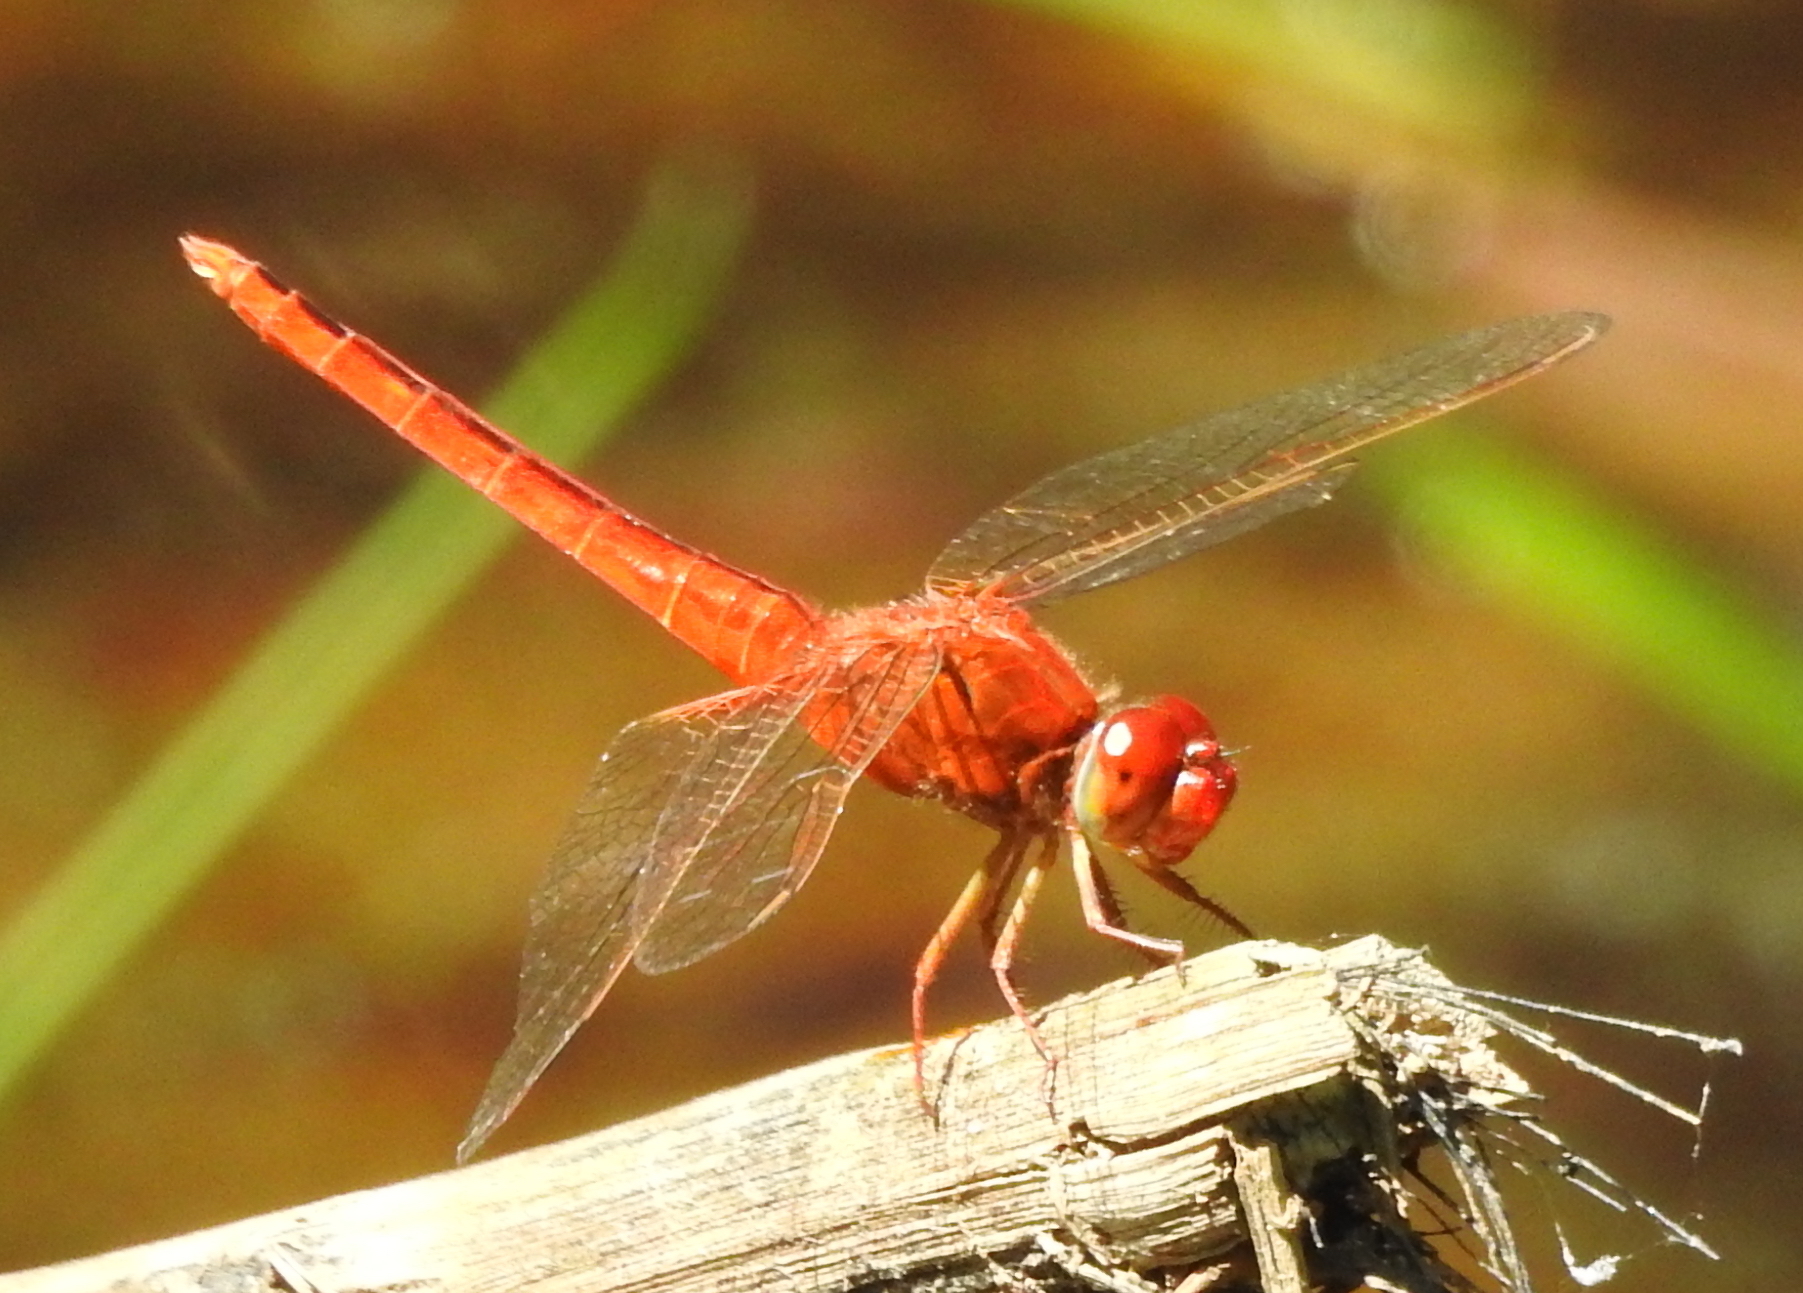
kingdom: Animalia
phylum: Arthropoda
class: Insecta
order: Odonata
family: Libellulidae
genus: Crocothemis
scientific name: Crocothemis servilia
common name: Scarlet skimmer
